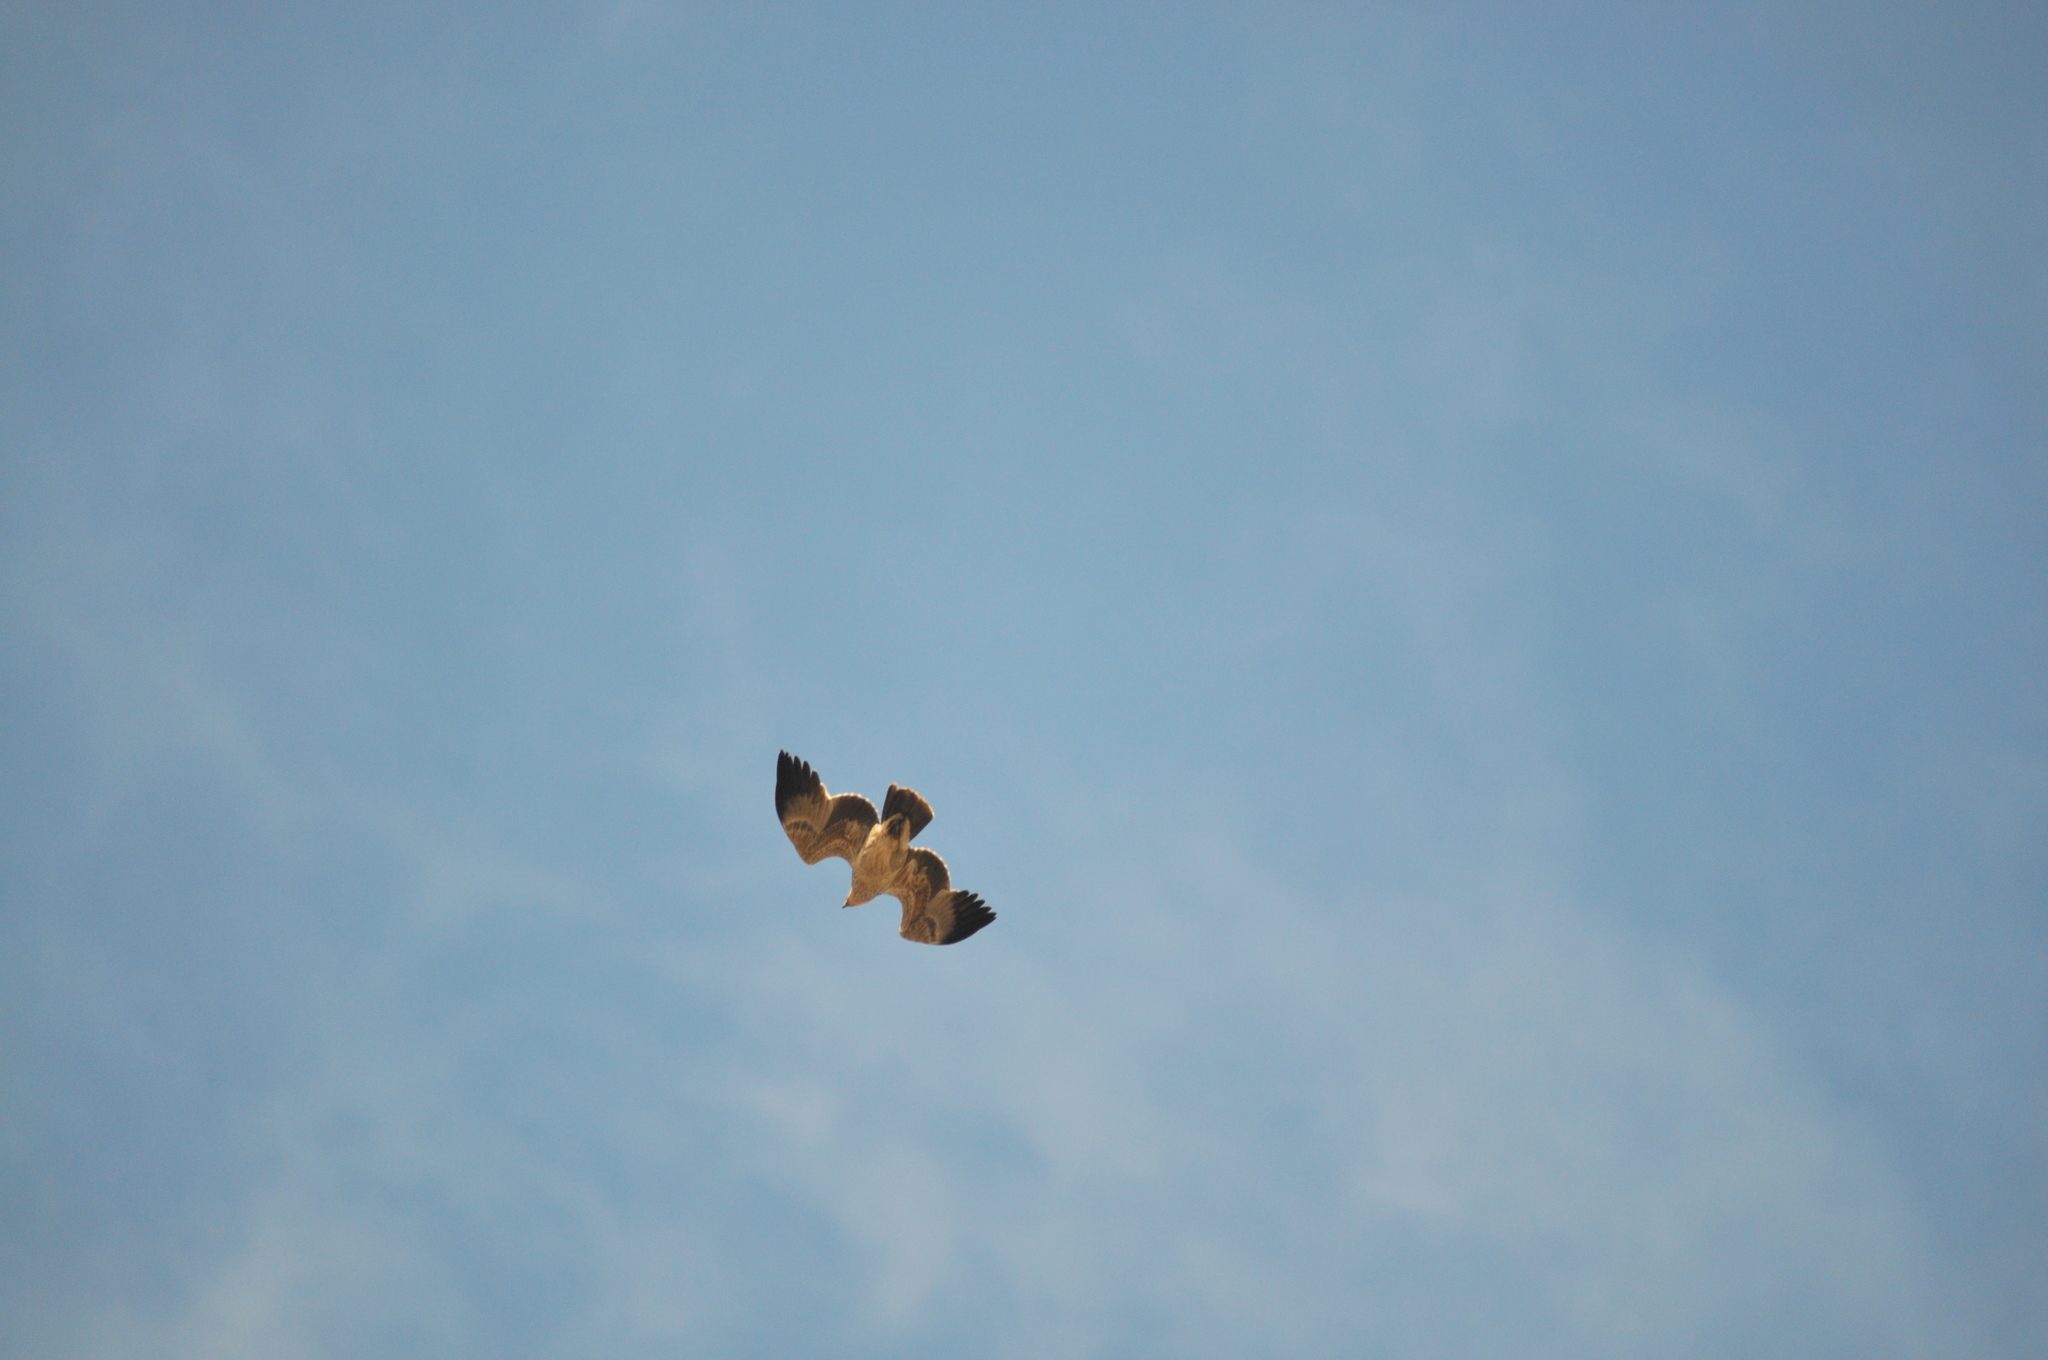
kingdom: Animalia
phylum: Chordata
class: Aves
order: Accipitriformes
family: Accipitridae
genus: Aquila
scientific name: Aquila rapax
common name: Tawny eagle
